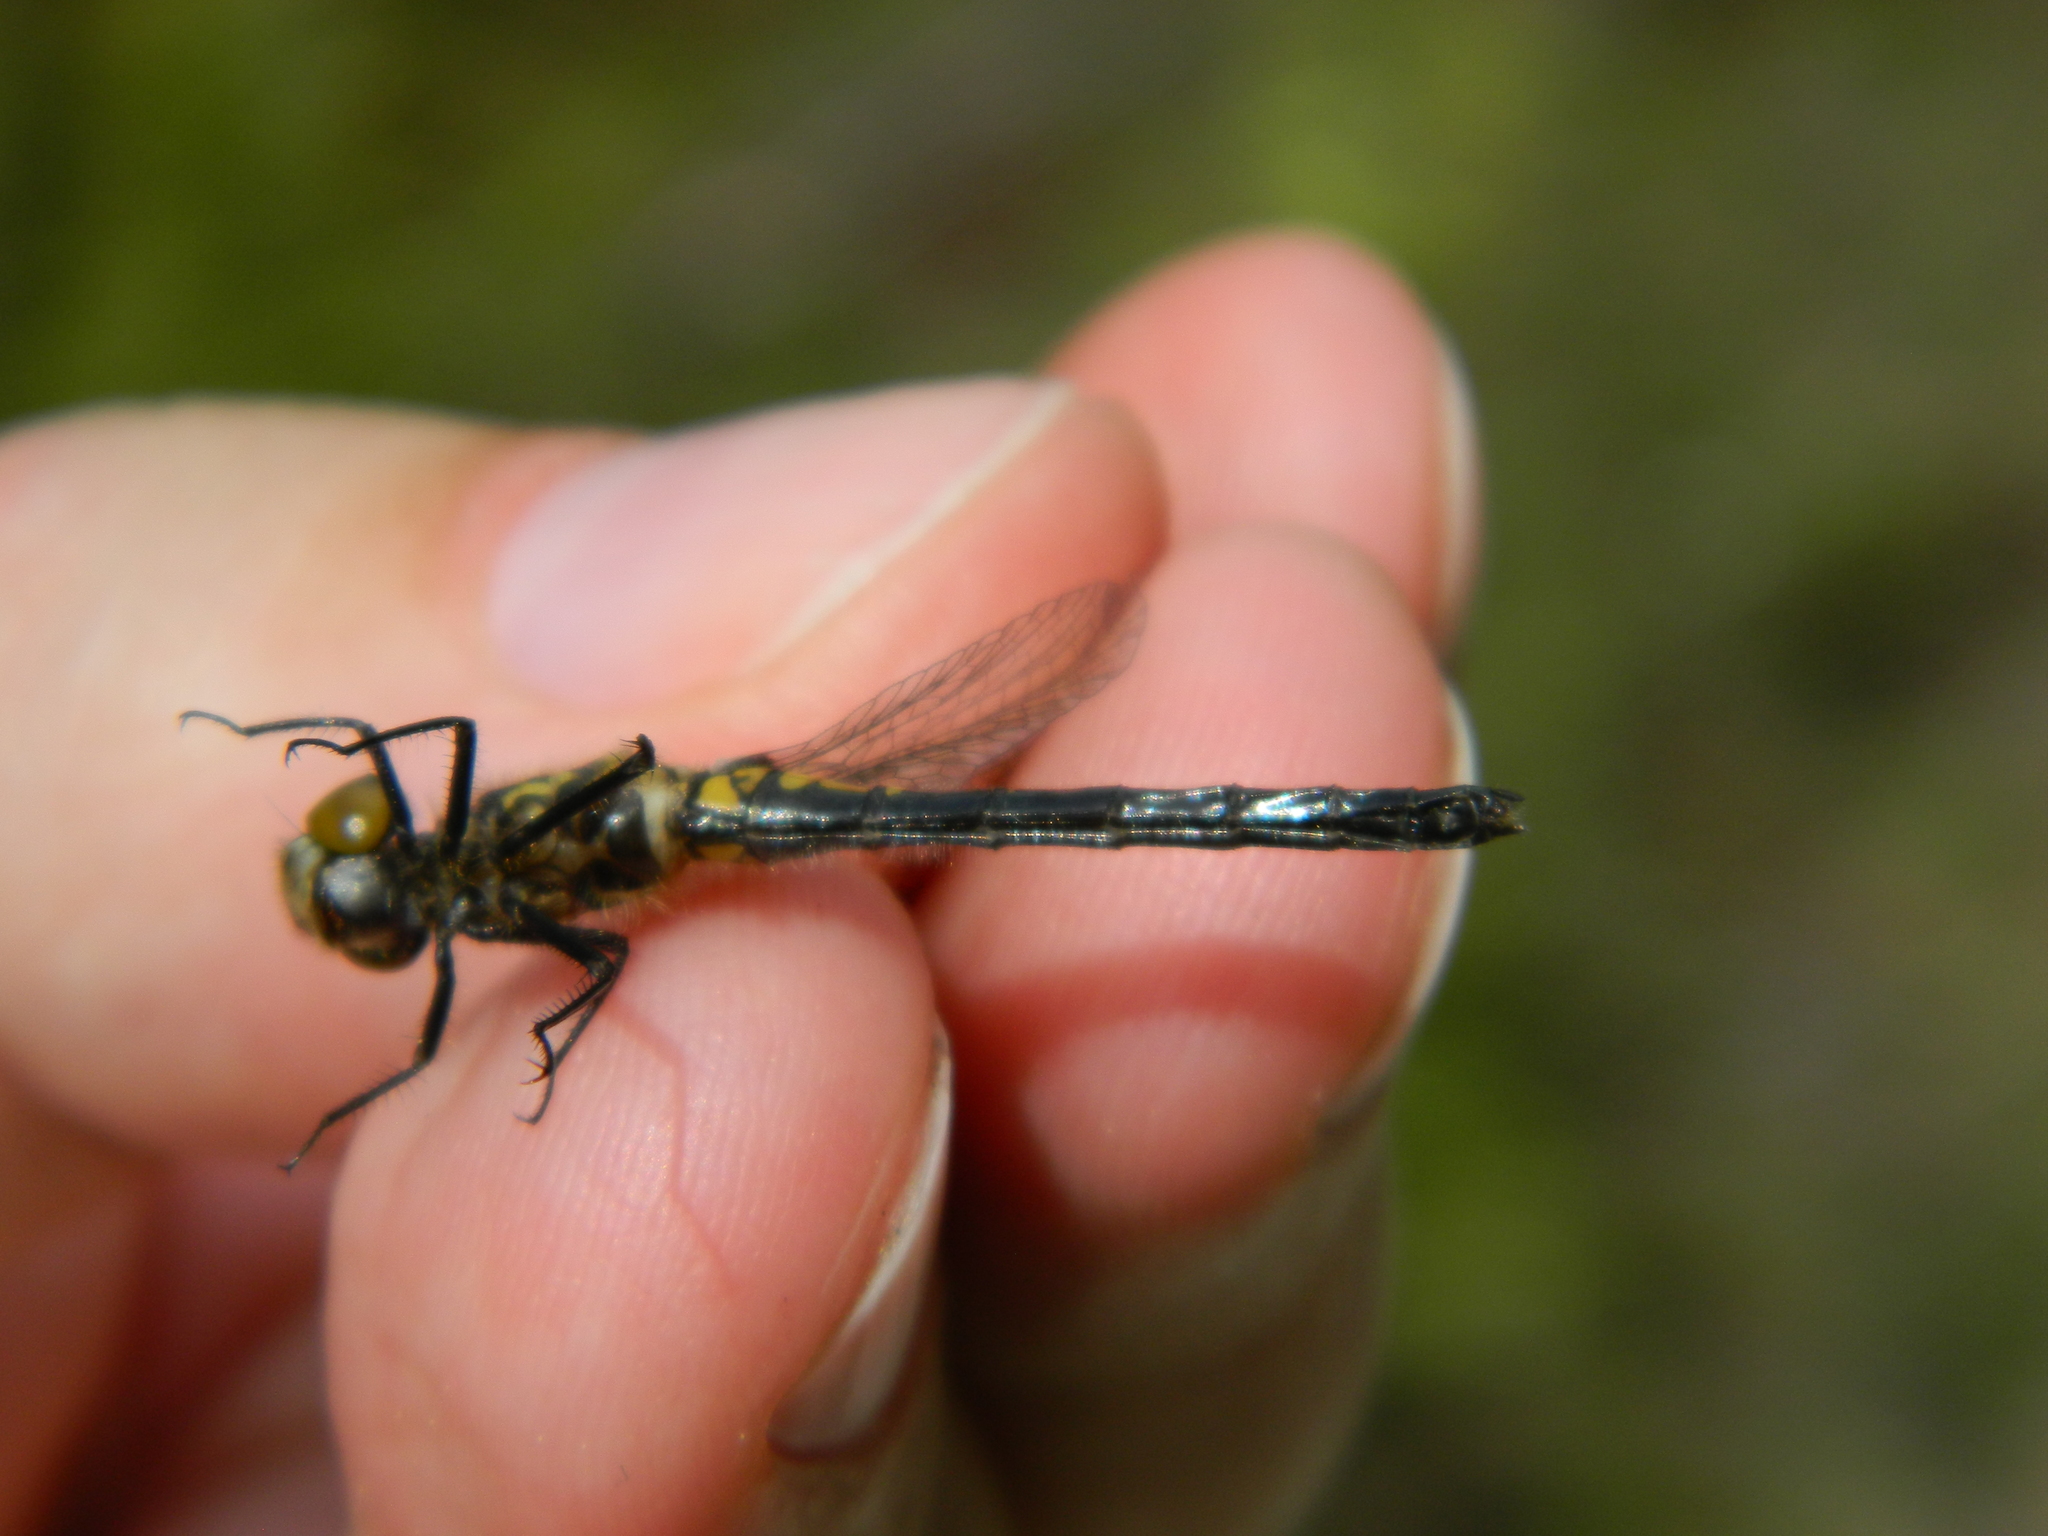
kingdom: Animalia
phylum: Arthropoda
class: Insecta
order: Odonata
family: Libellulidae
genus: Leucorrhinia
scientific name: Leucorrhinia hudsonica
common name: Hudsonian whiteface
